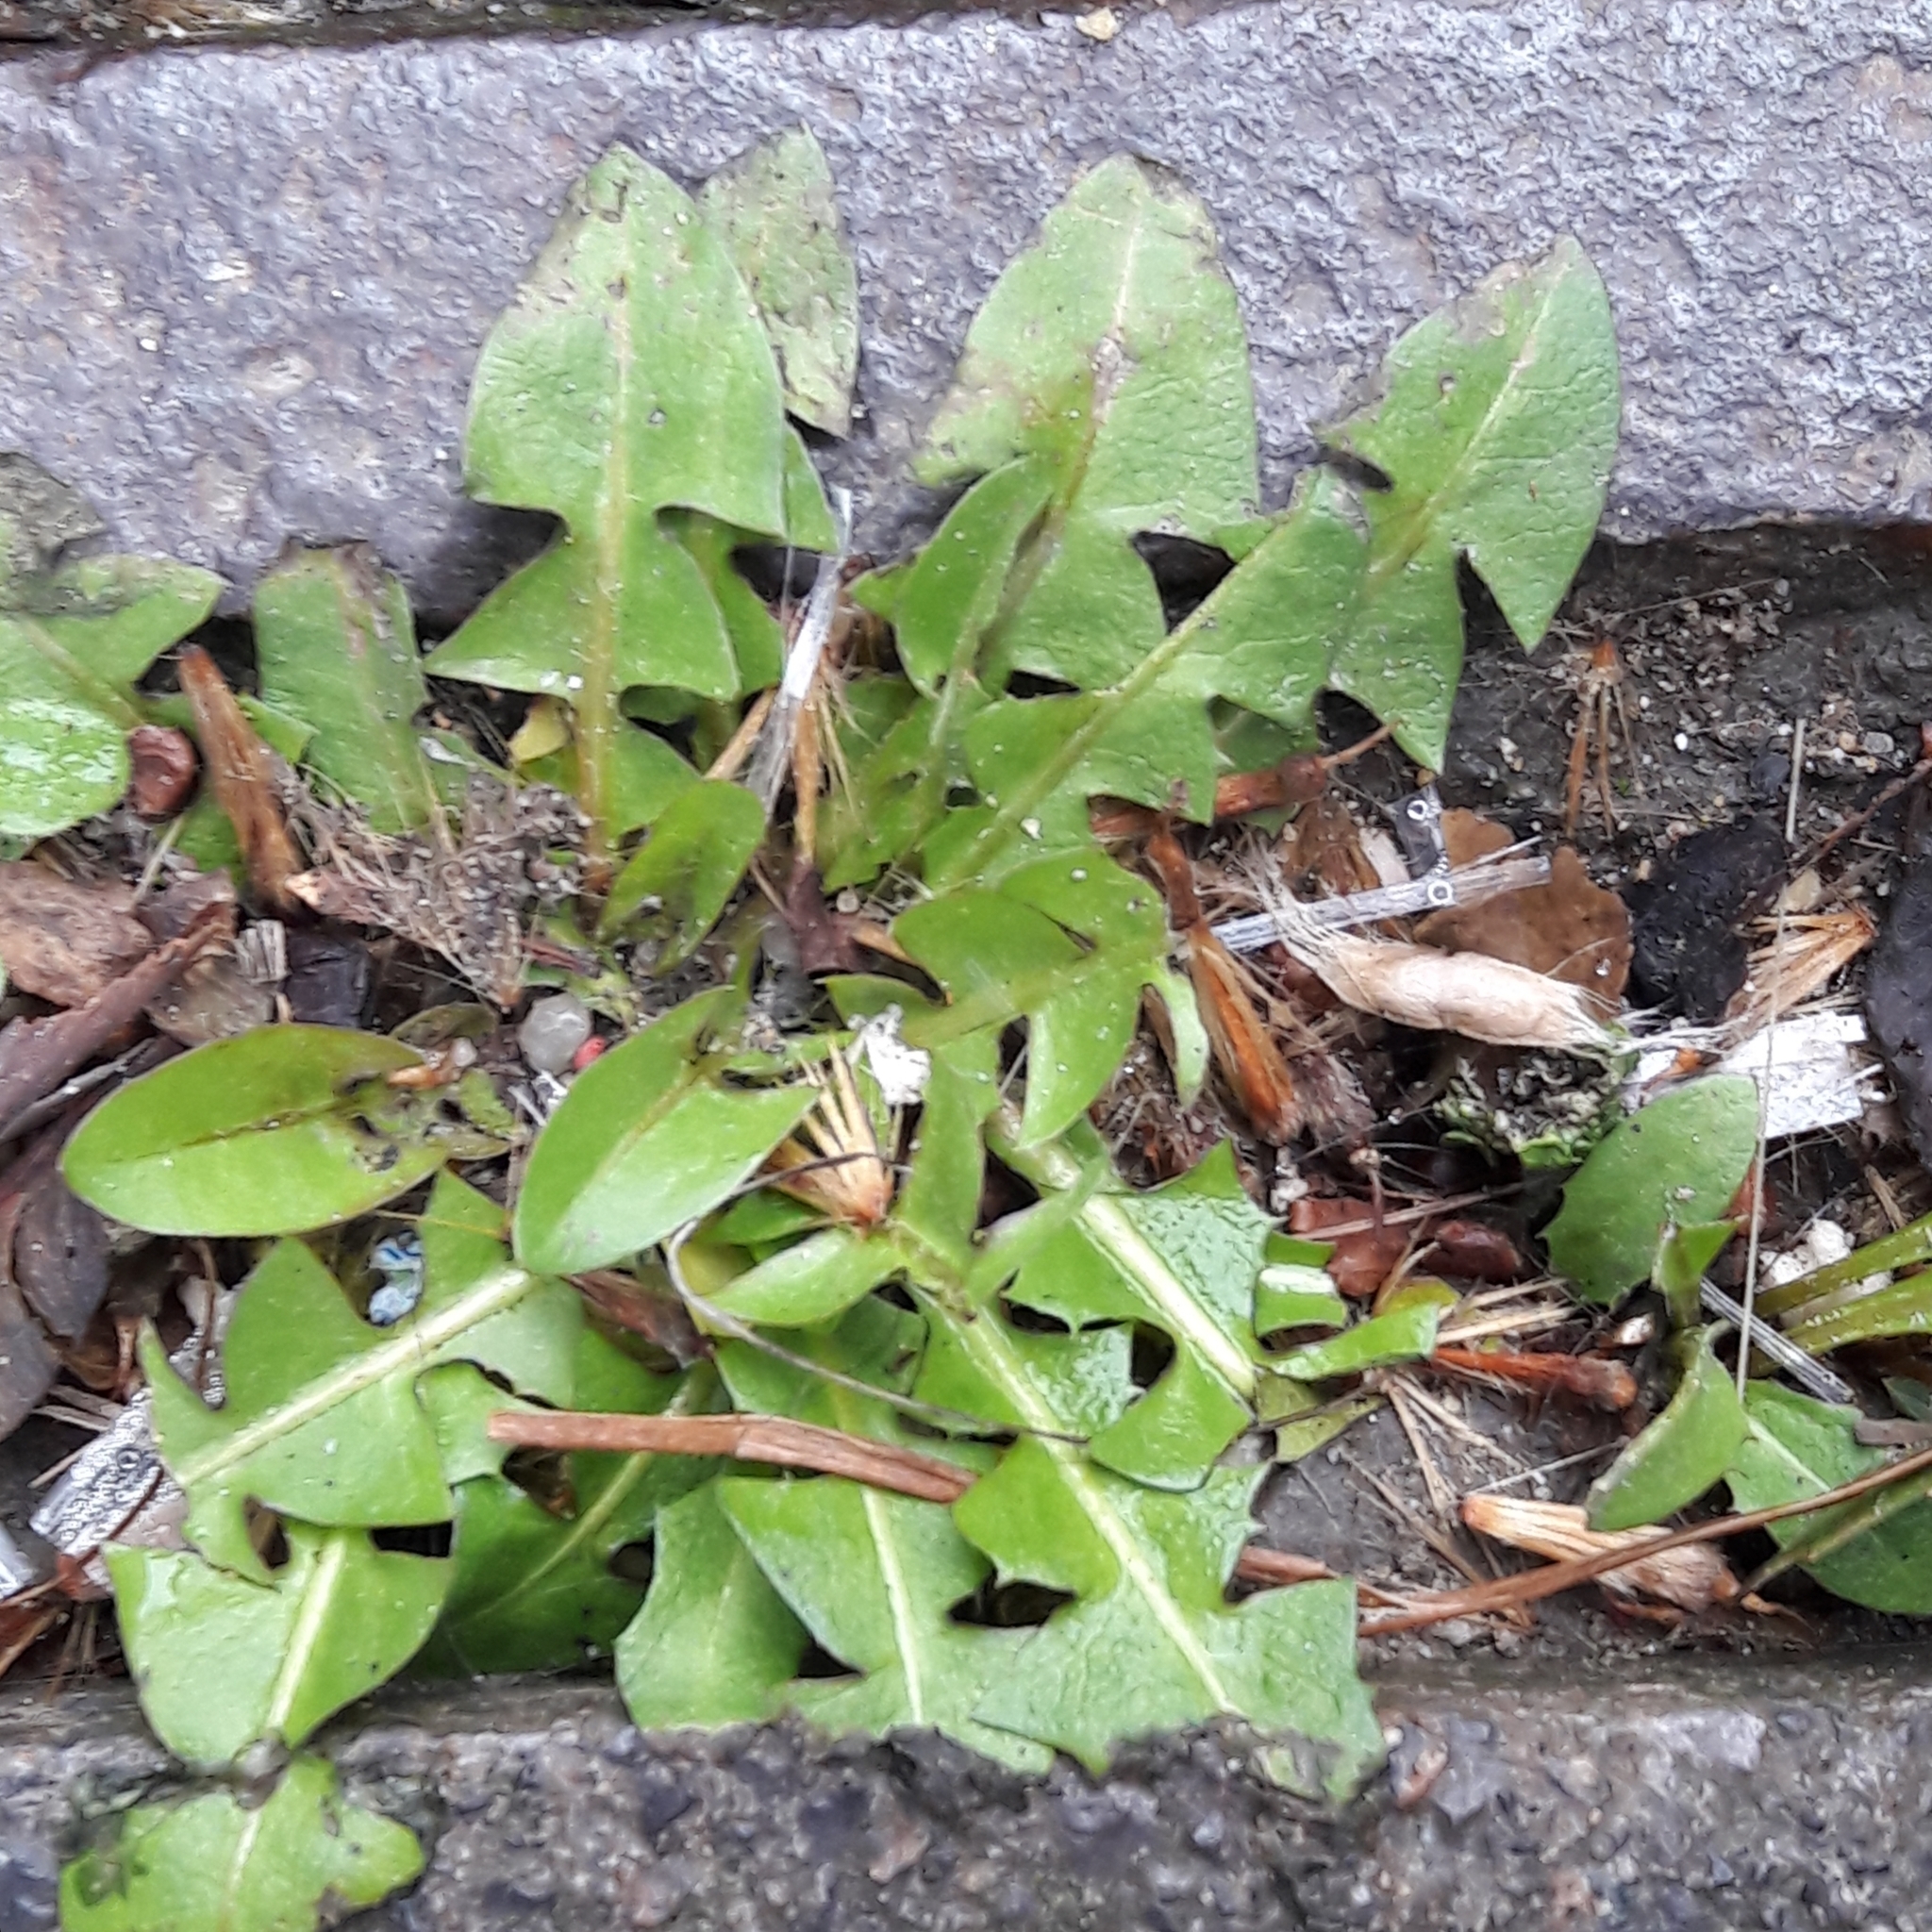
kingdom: Plantae
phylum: Tracheophyta
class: Magnoliopsida
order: Asterales
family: Asteraceae
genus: Taraxacum
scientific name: Taraxacum officinale
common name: Common dandelion
